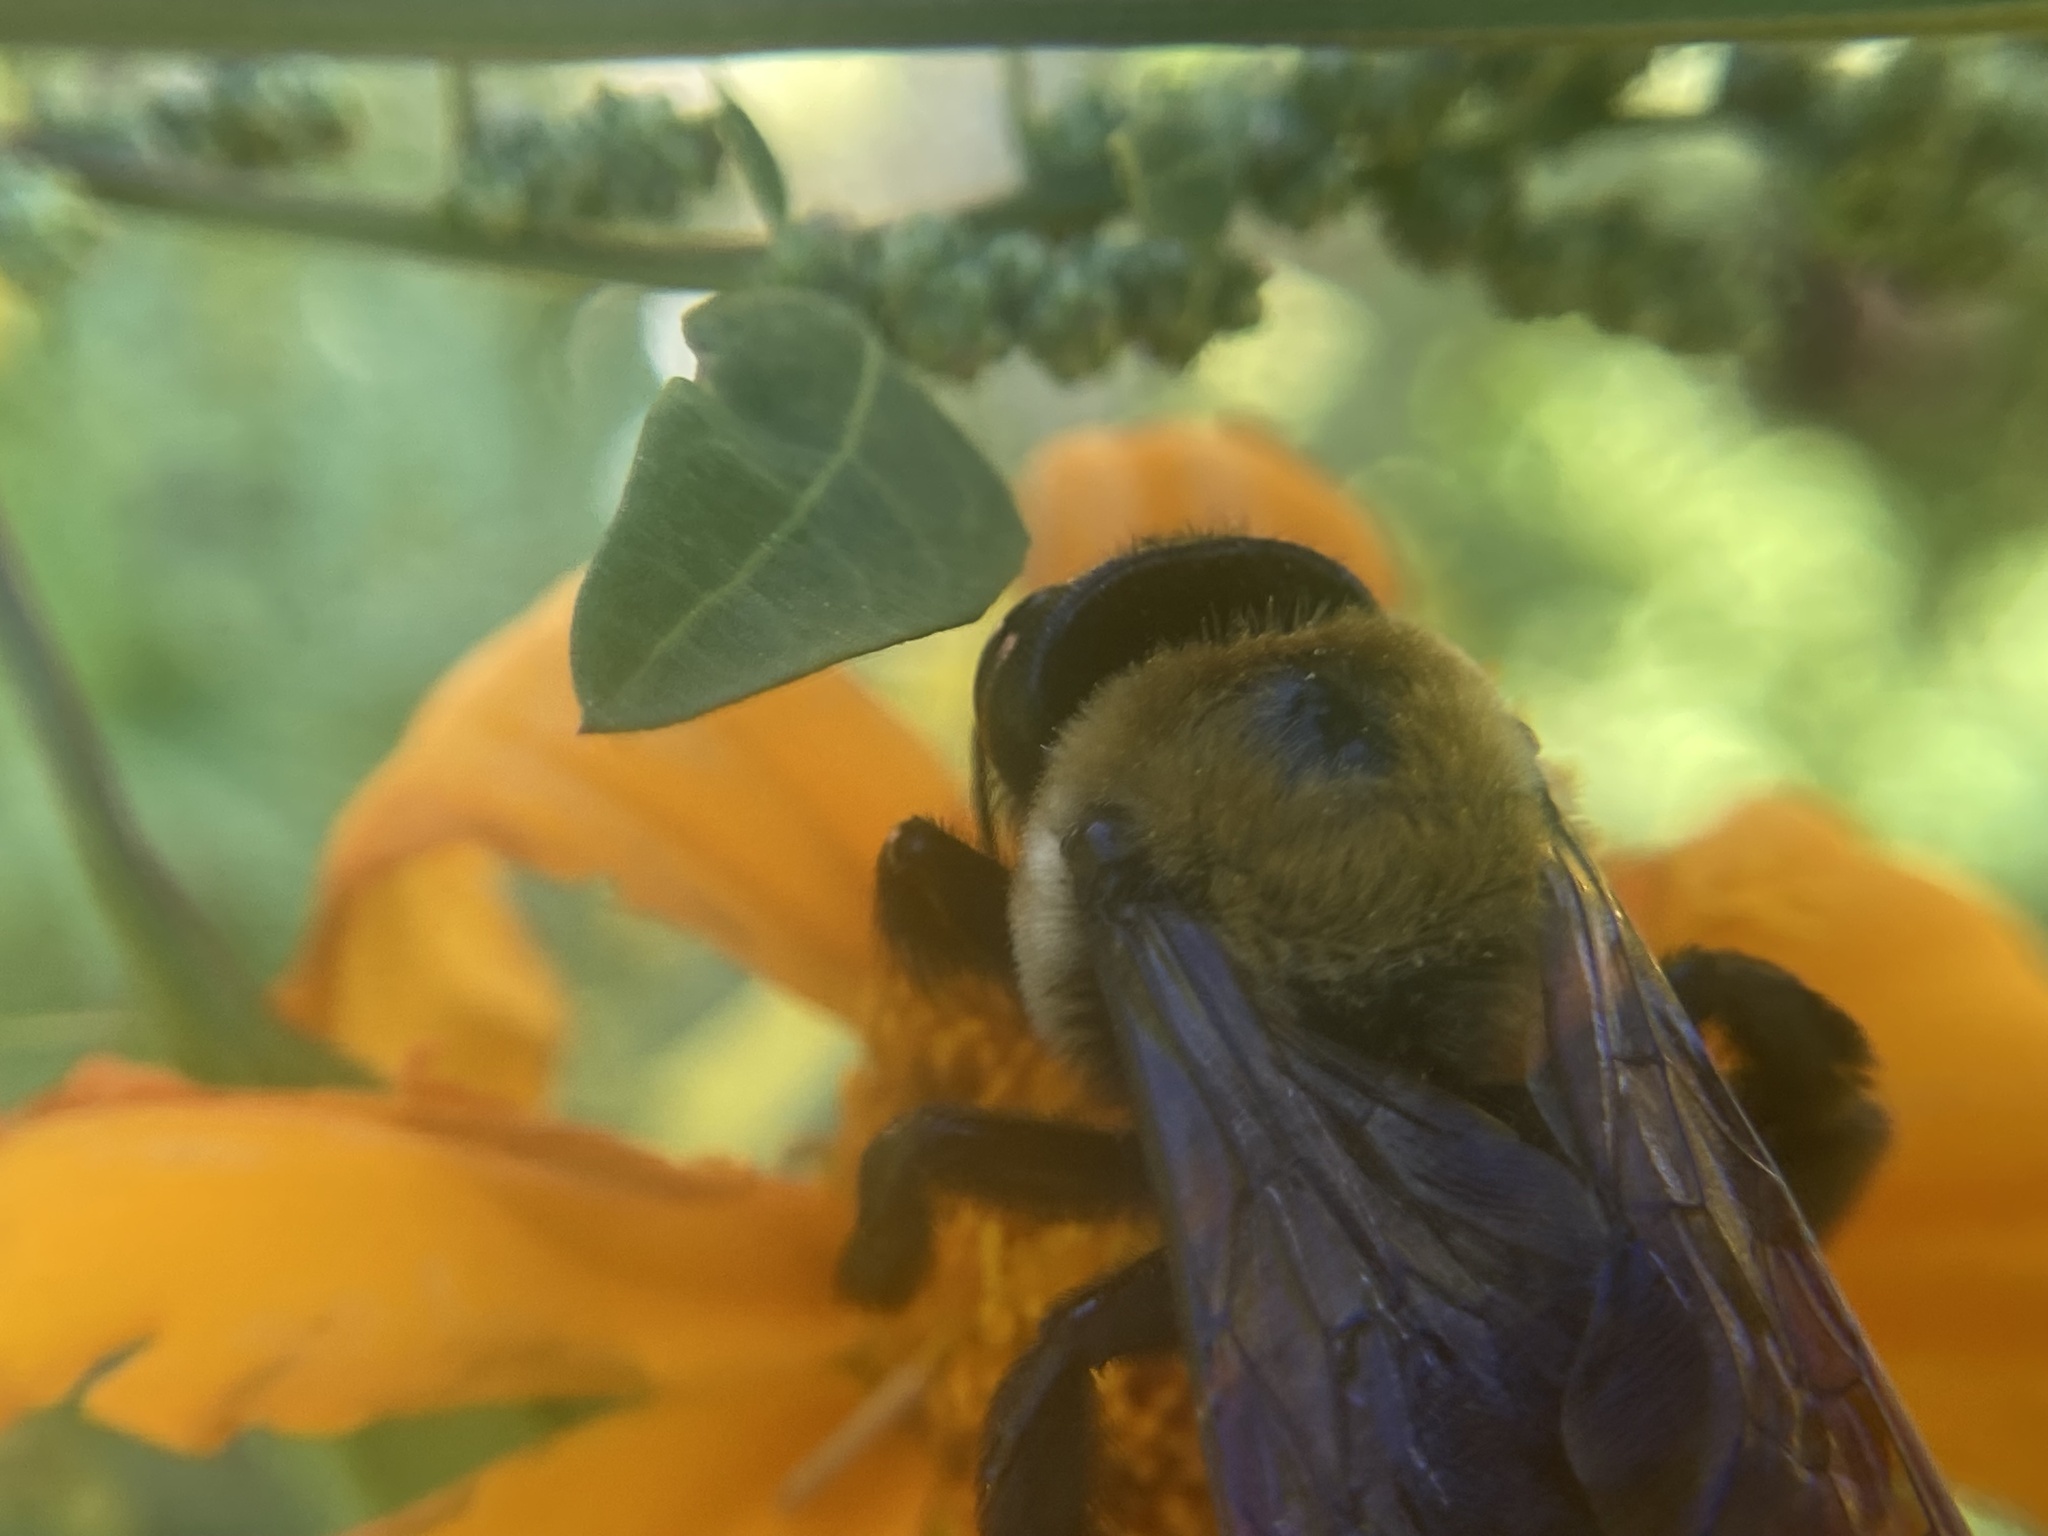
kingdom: Animalia
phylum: Arthropoda
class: Insecta
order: Hymenoptera
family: Apidae
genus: Xylocopa
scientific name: Xylocopa virginica
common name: Carpenter bee
